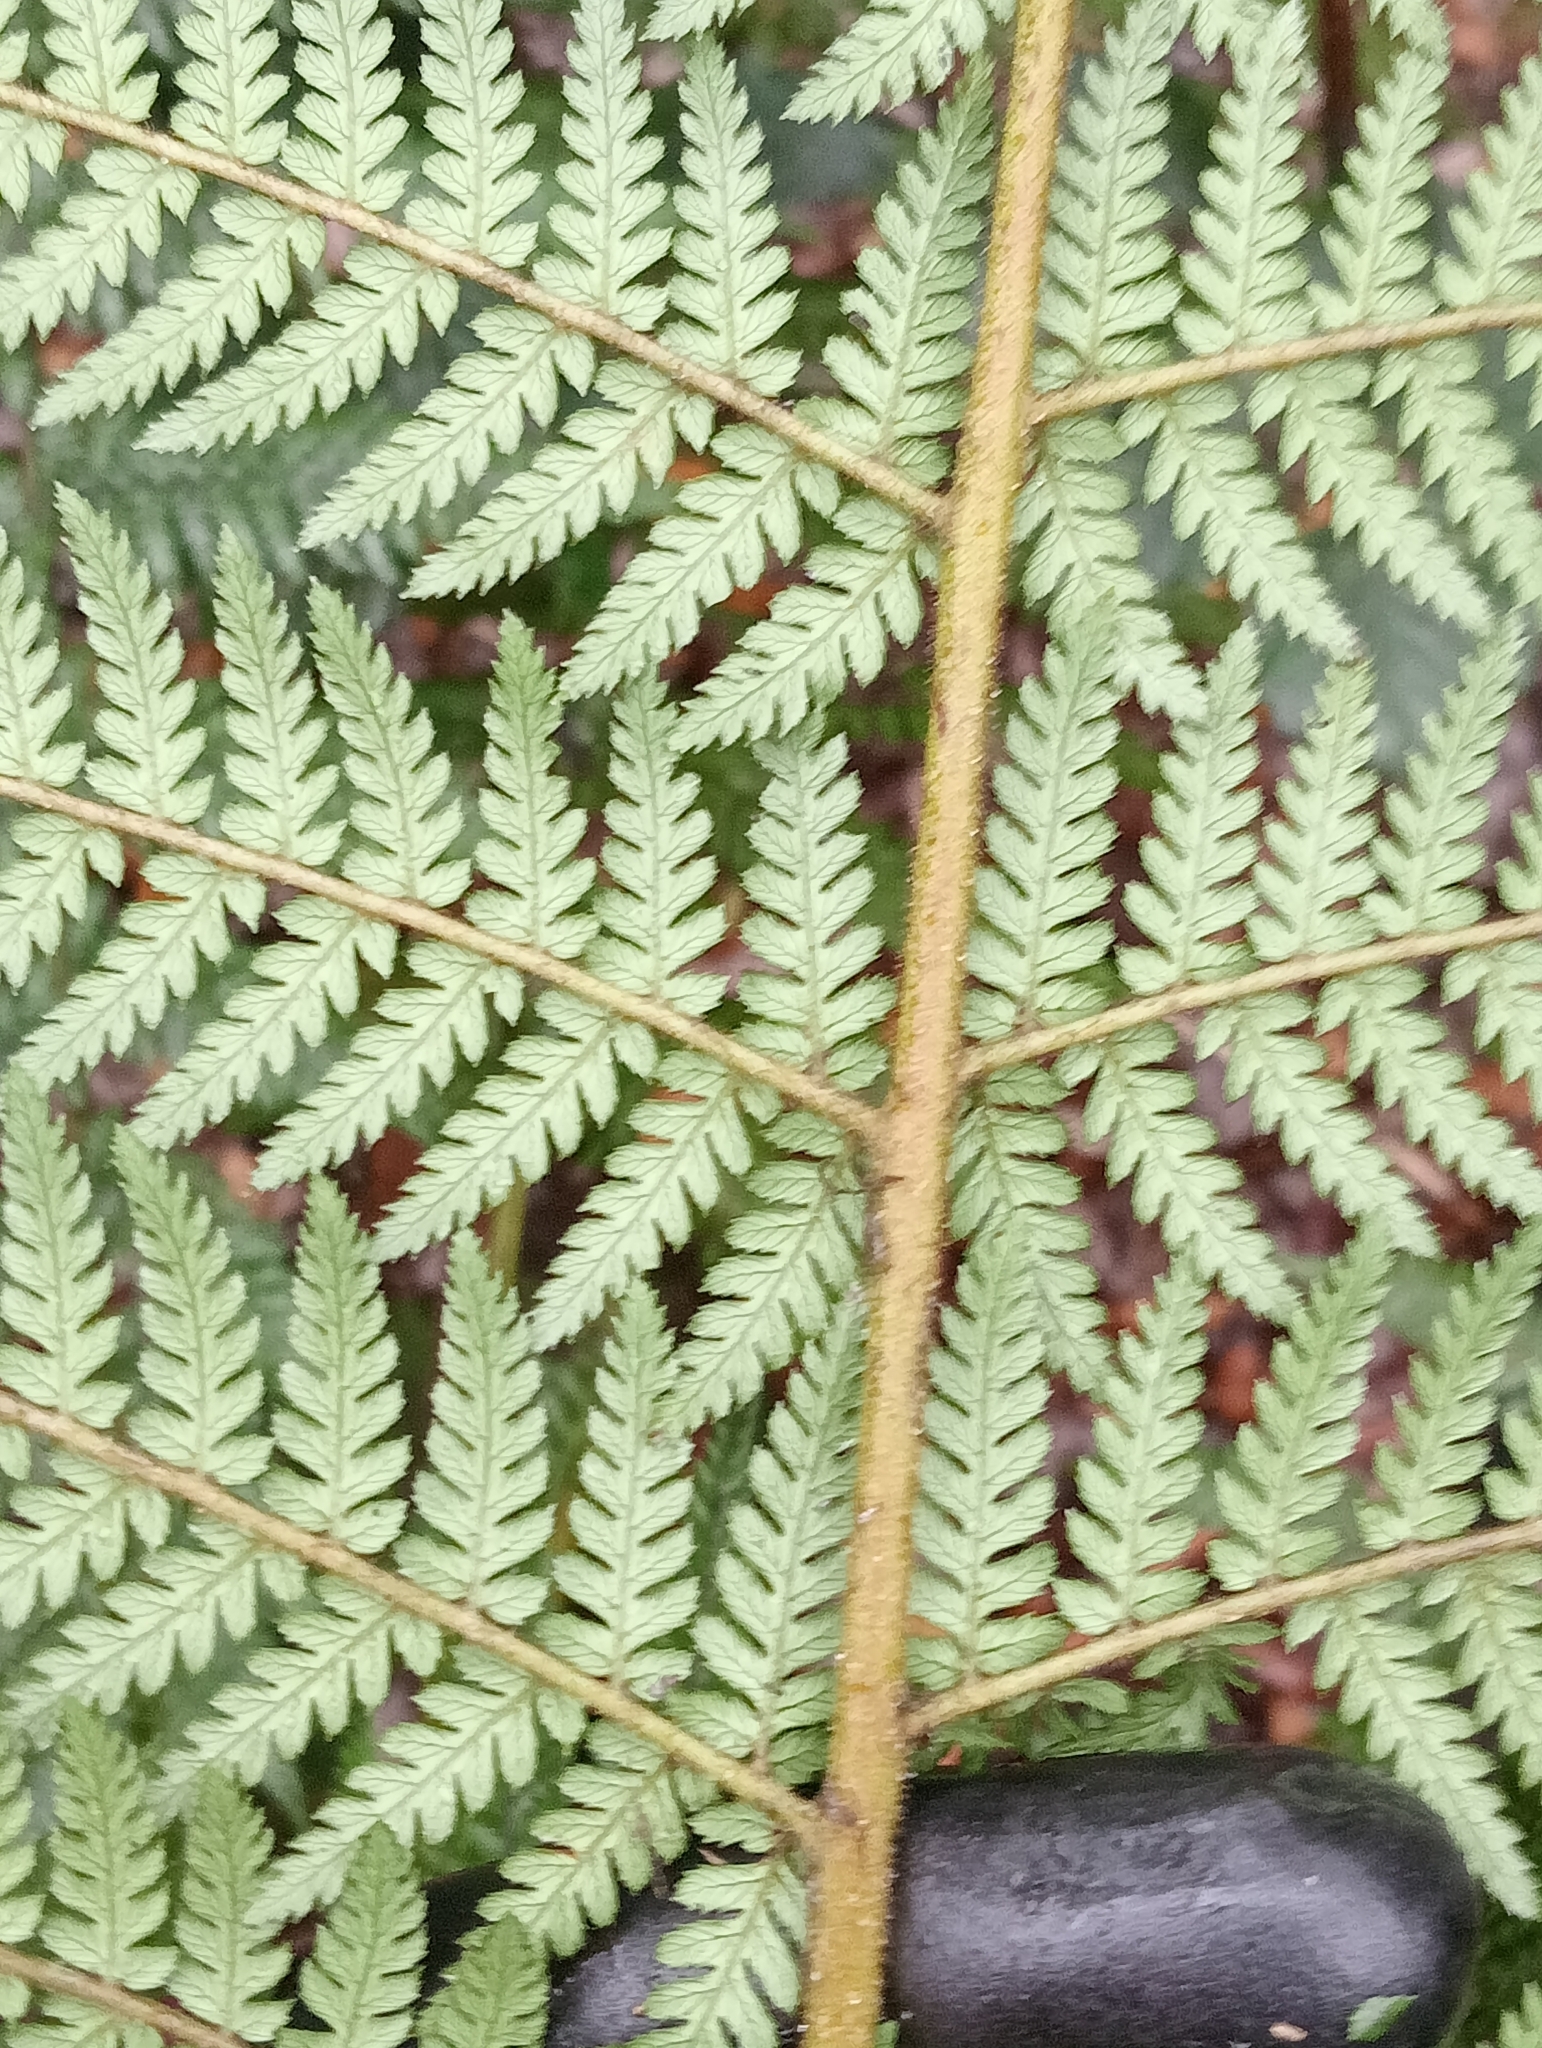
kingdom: Plantae
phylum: Tracheophyta
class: Polypodiopsida
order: Cyatheales
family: Dicksoniaceae
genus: Dicksonia
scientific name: Dicksonia fibrosa
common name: Golden tree fern
